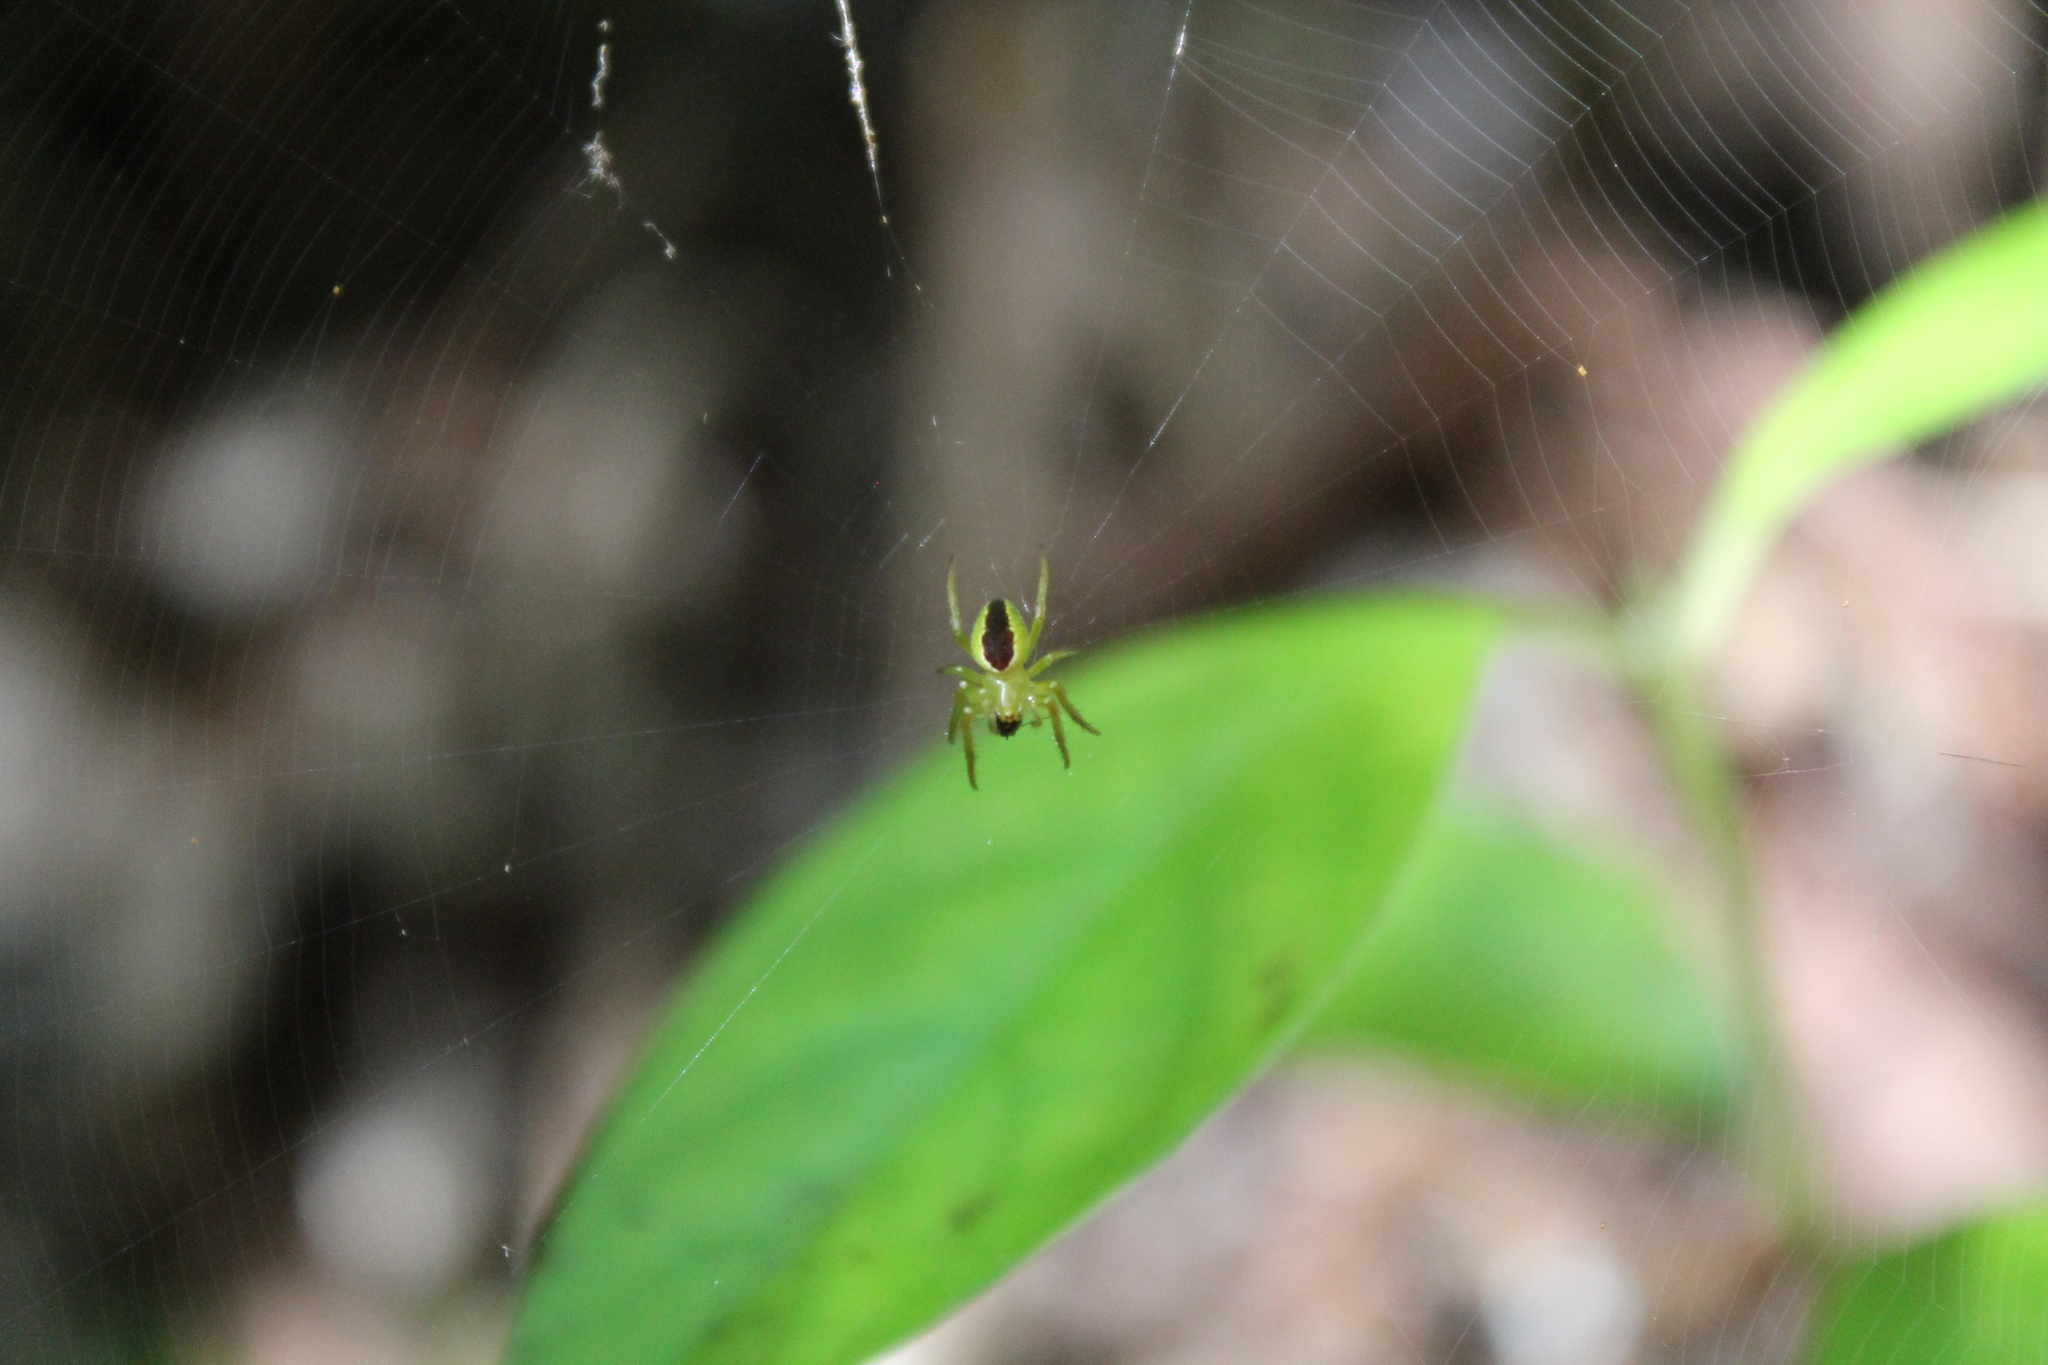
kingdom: Animalia
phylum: Arthropoda
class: Arachnida
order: Araneae
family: Araneidae
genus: Colaranea
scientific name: Colaranea melanoviridis
